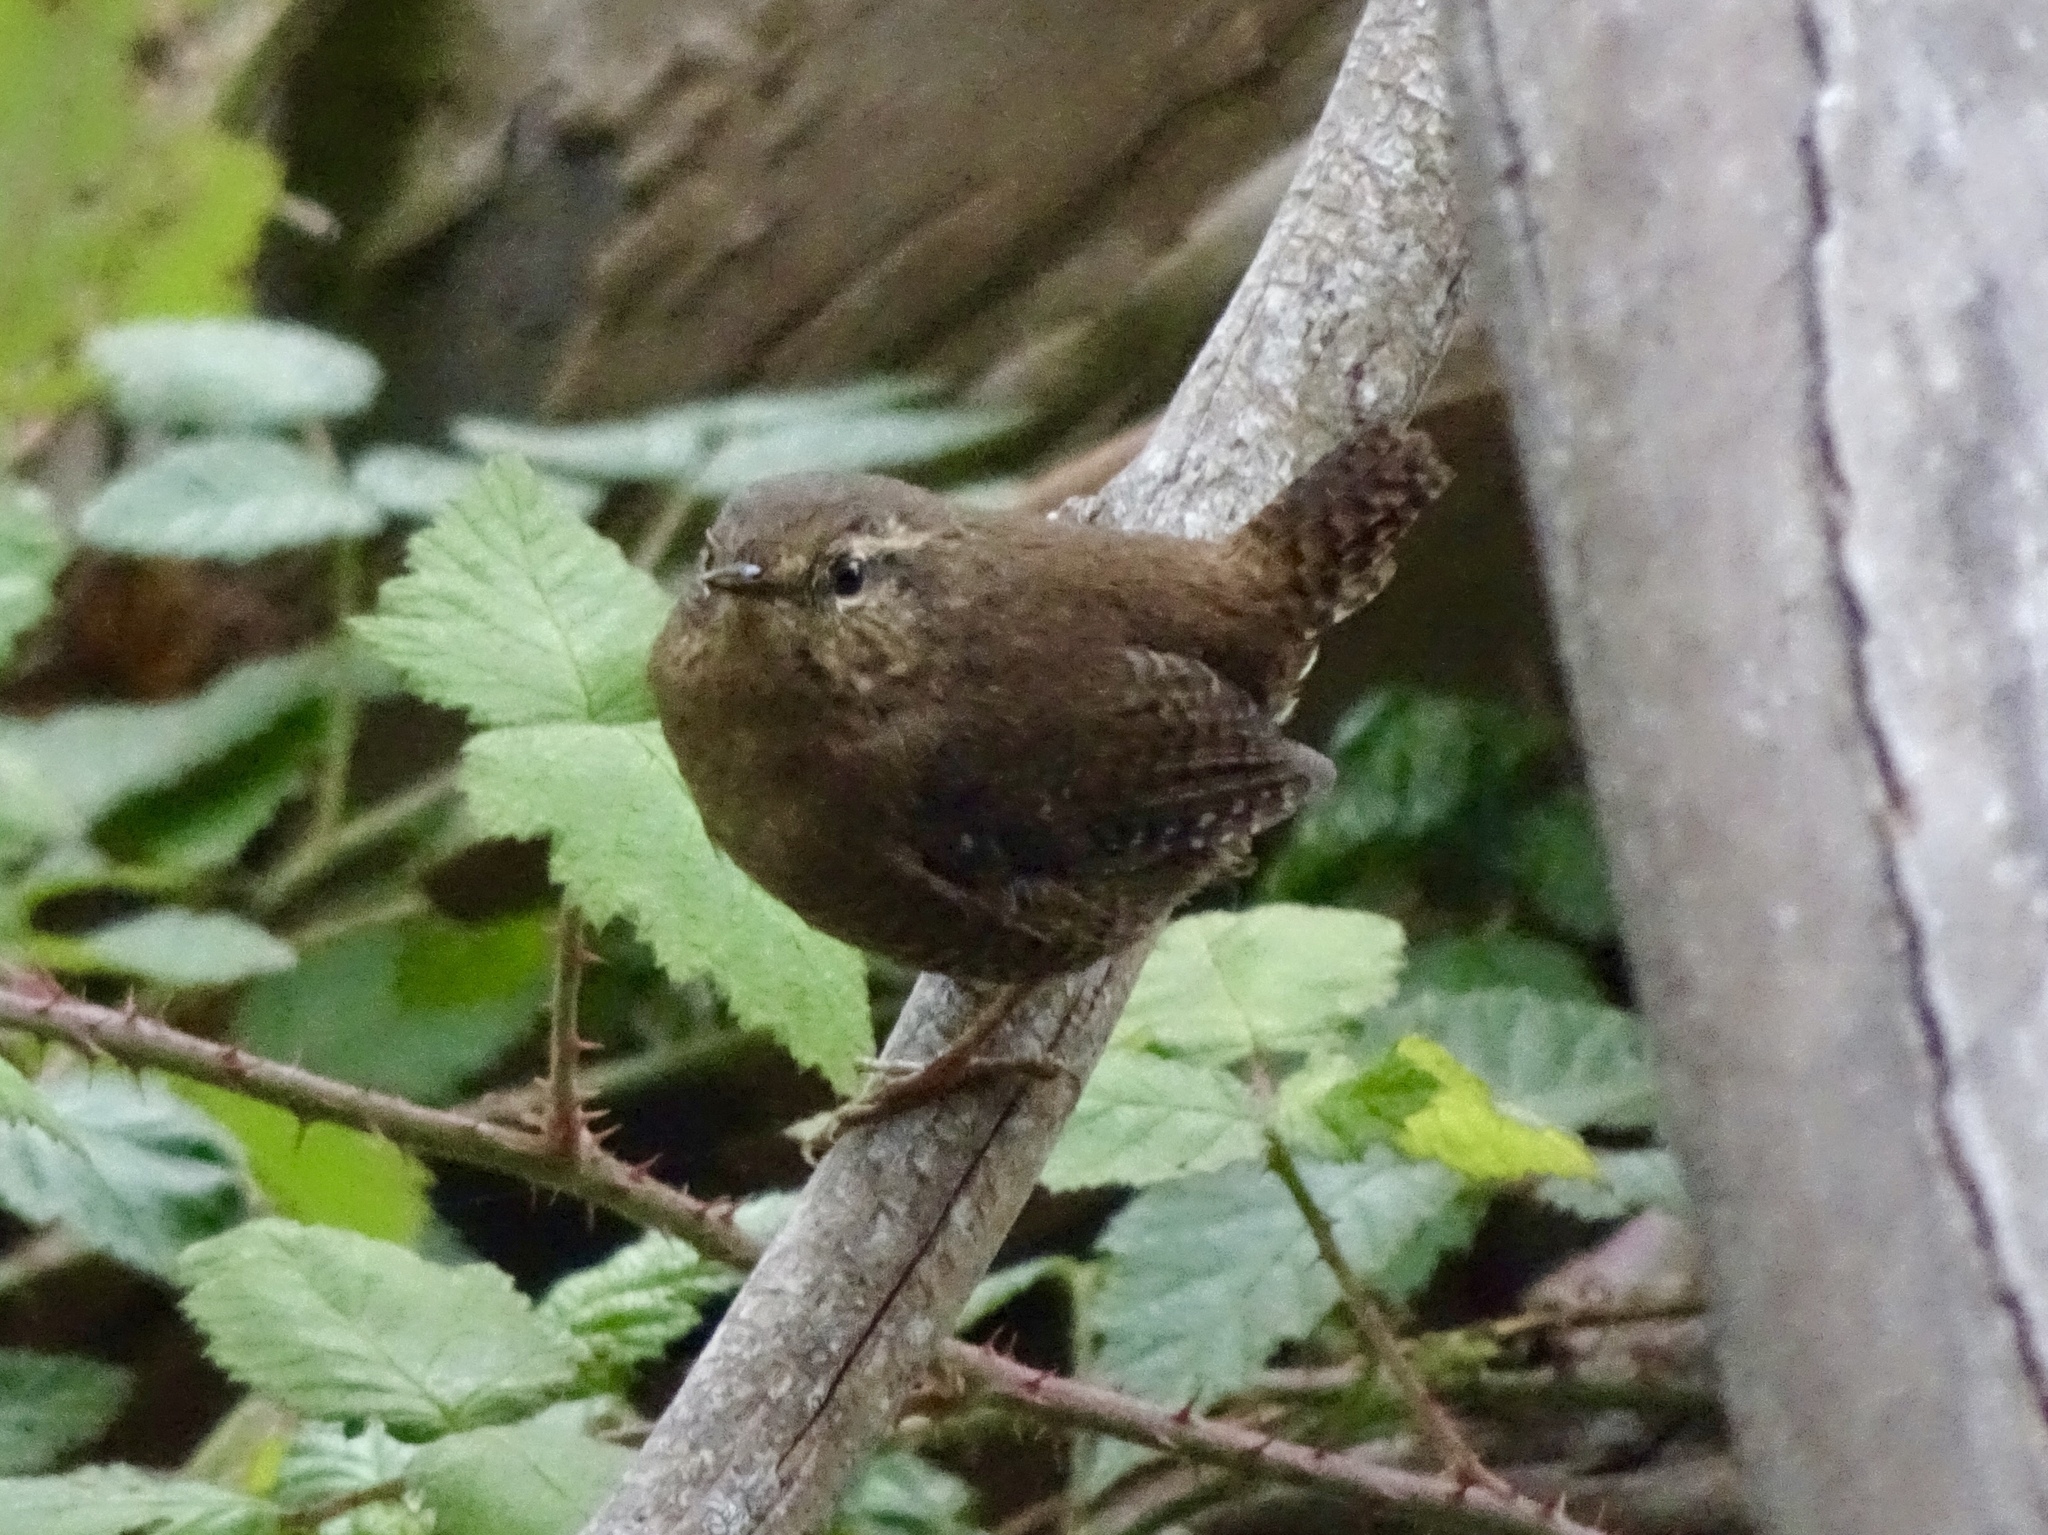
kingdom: Animalia
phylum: Chordata
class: Aves
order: Passeriformes
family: Troglodytidae
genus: Troglodytes
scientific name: Troglodytes pacificus
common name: Pacific wren
